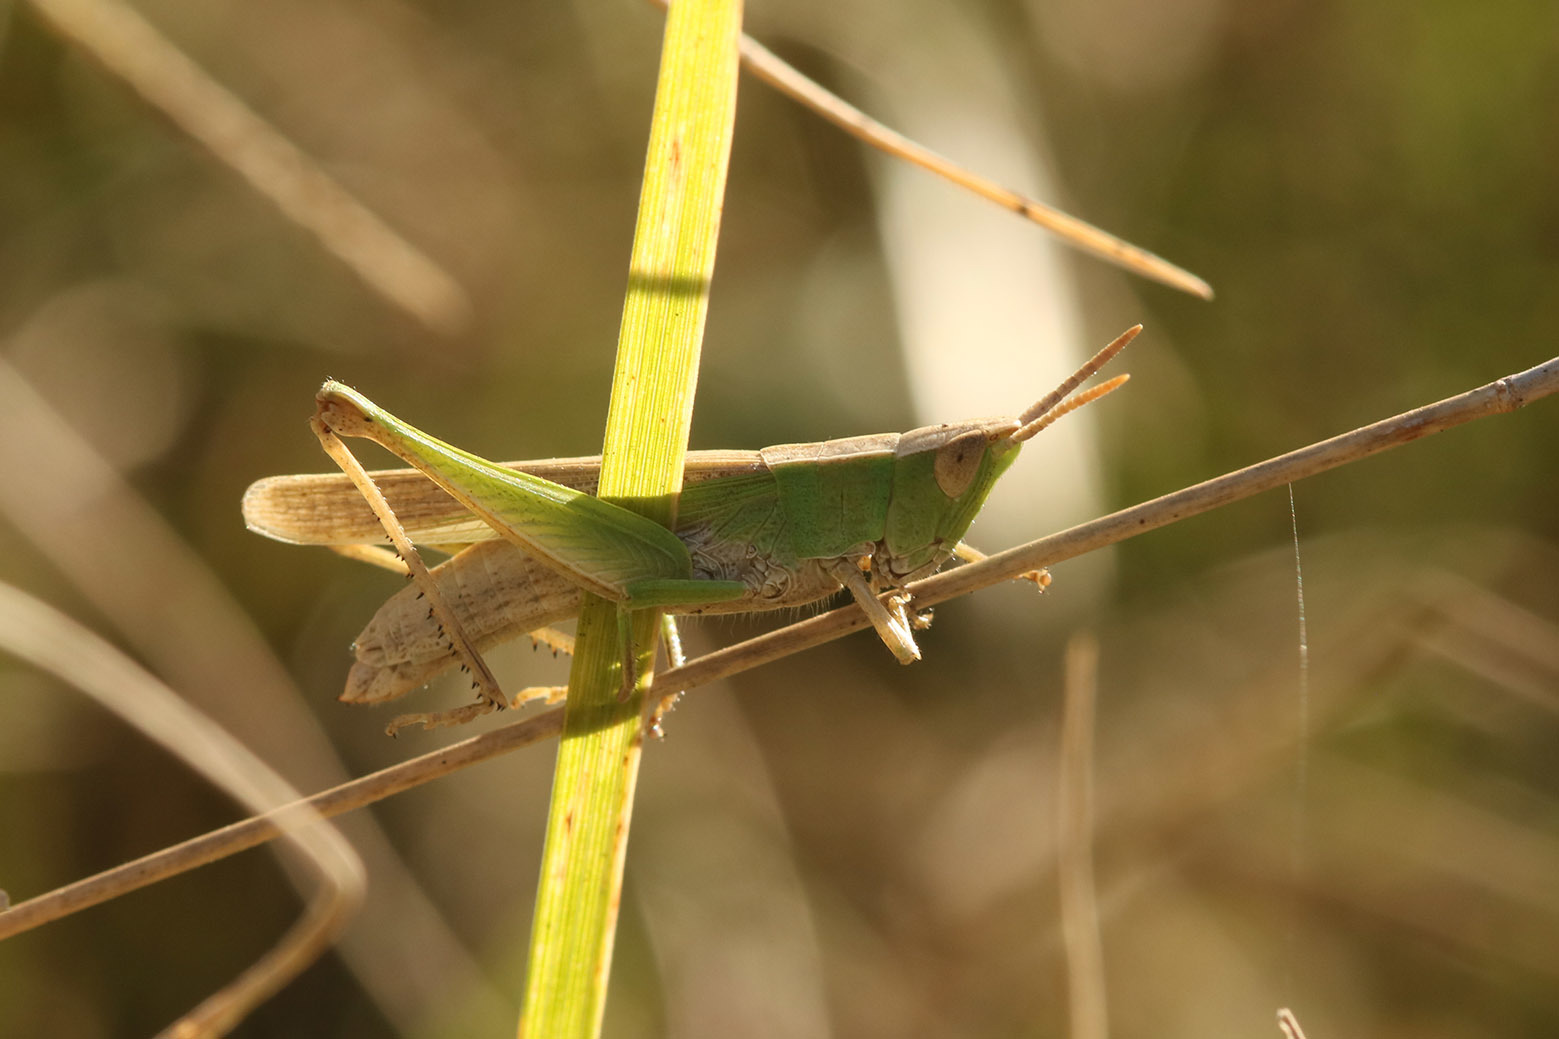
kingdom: Animalia
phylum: Arthropoda
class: Insecta
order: Orthoptera
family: Acrididae
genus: Laplatacris
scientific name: Laplatacris dispar
